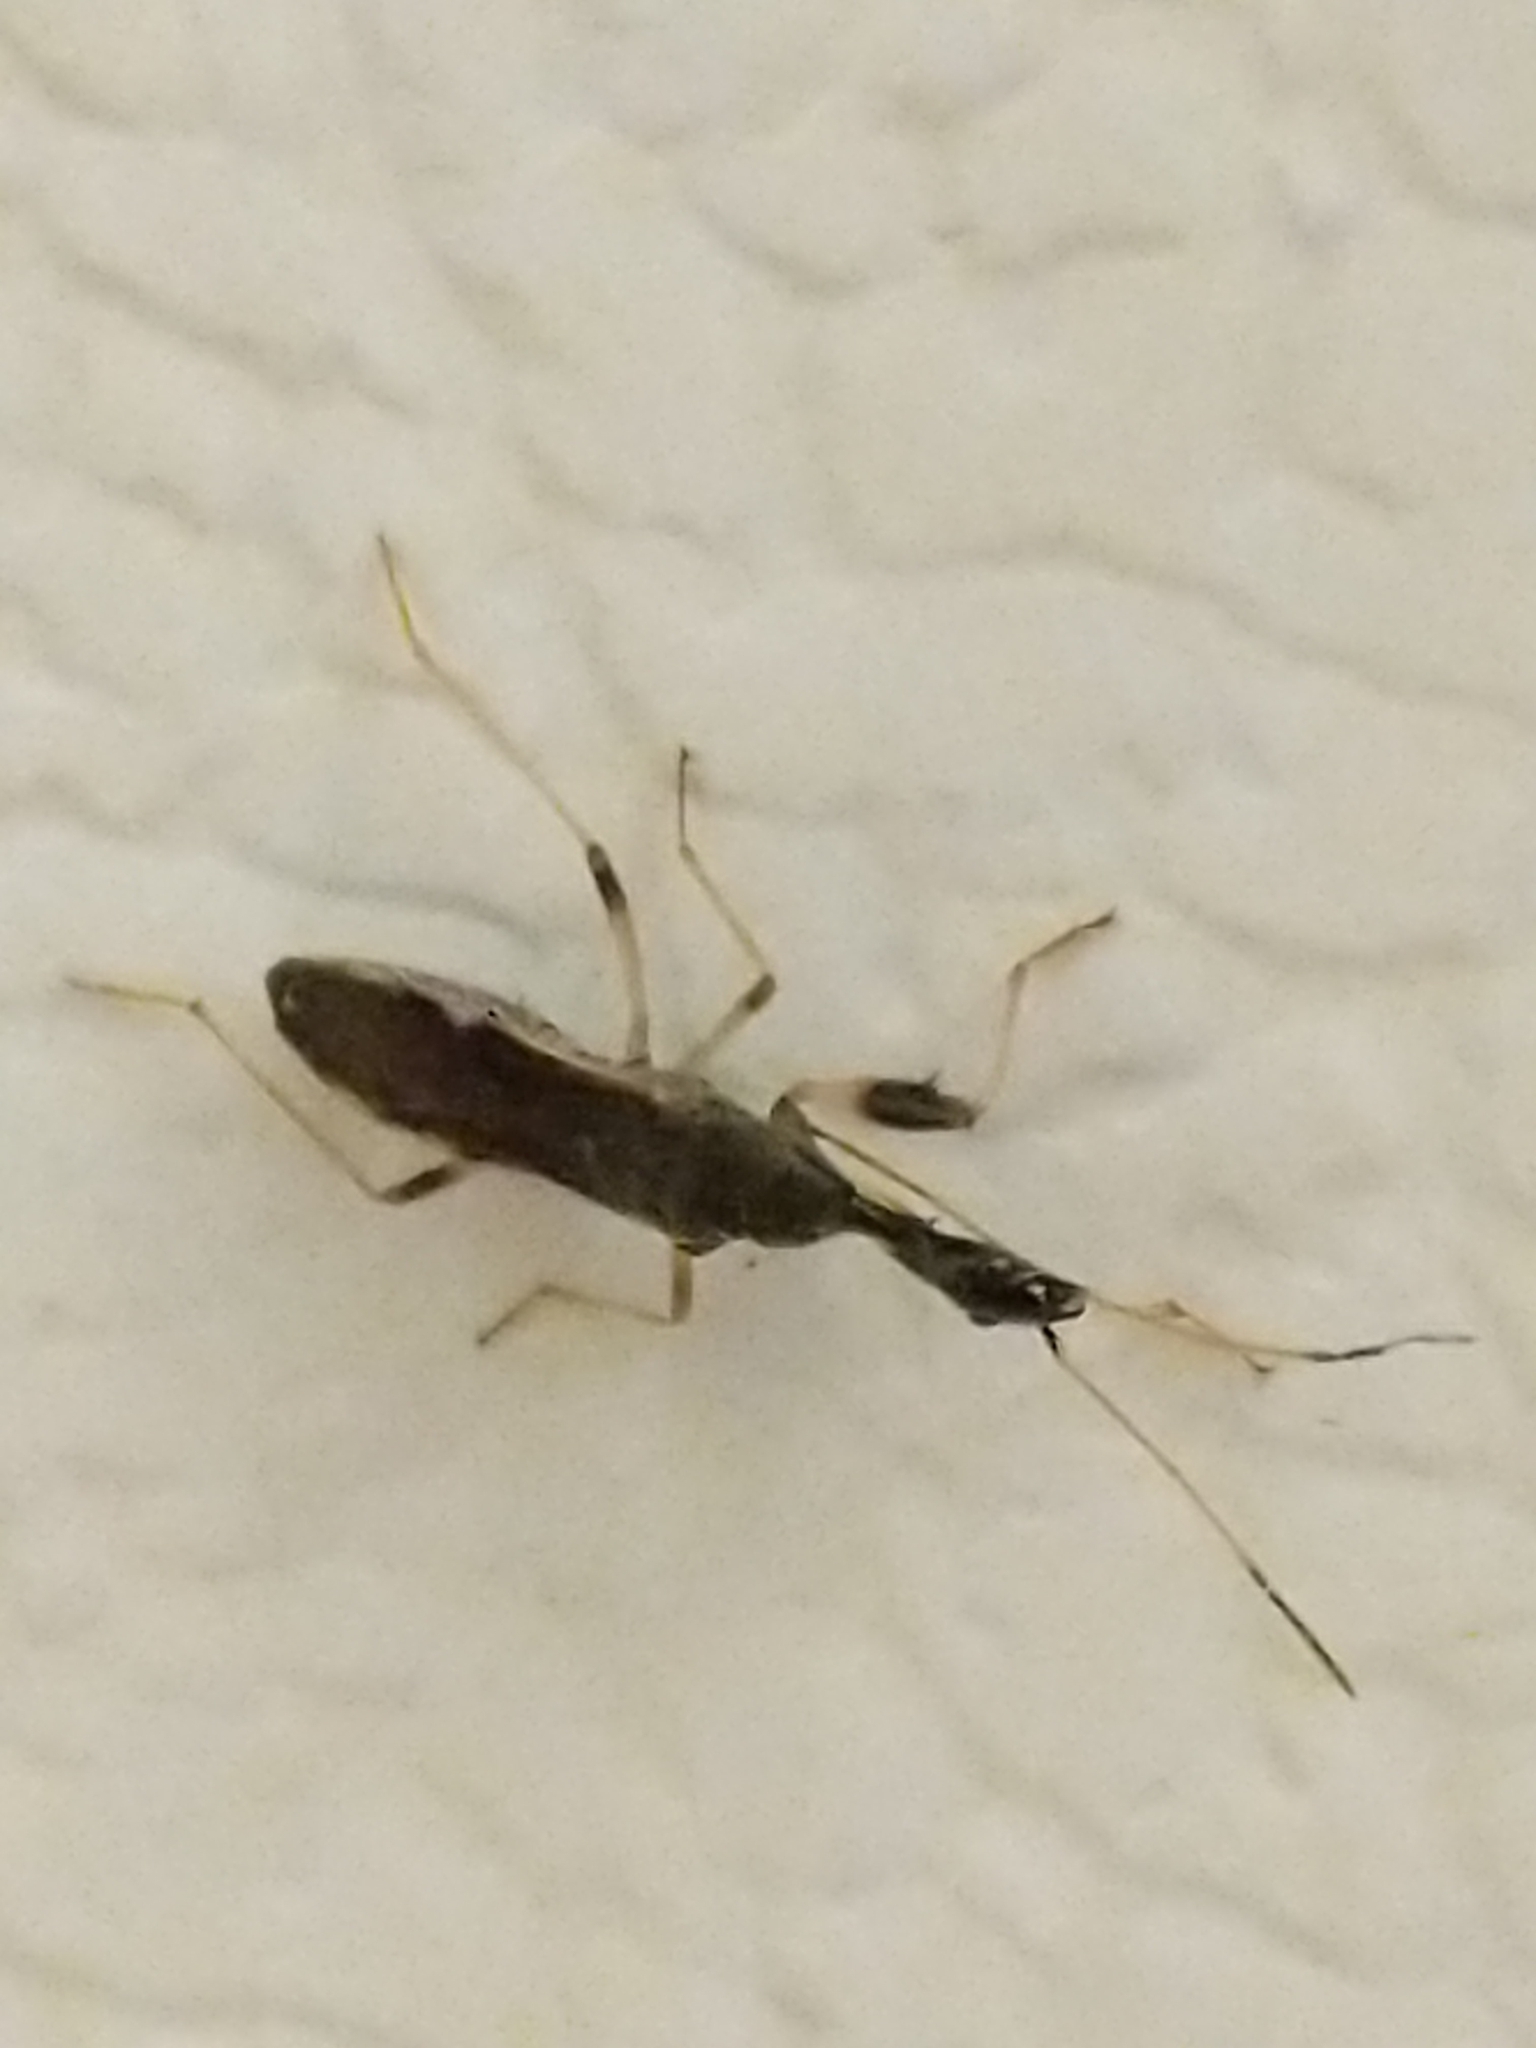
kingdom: Animalia
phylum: Arthropoda
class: Insecta
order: Hemiptera
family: Rhyparochromidae
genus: Myodocha
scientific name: Myodocha serripes
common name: Long-necked seed bug
